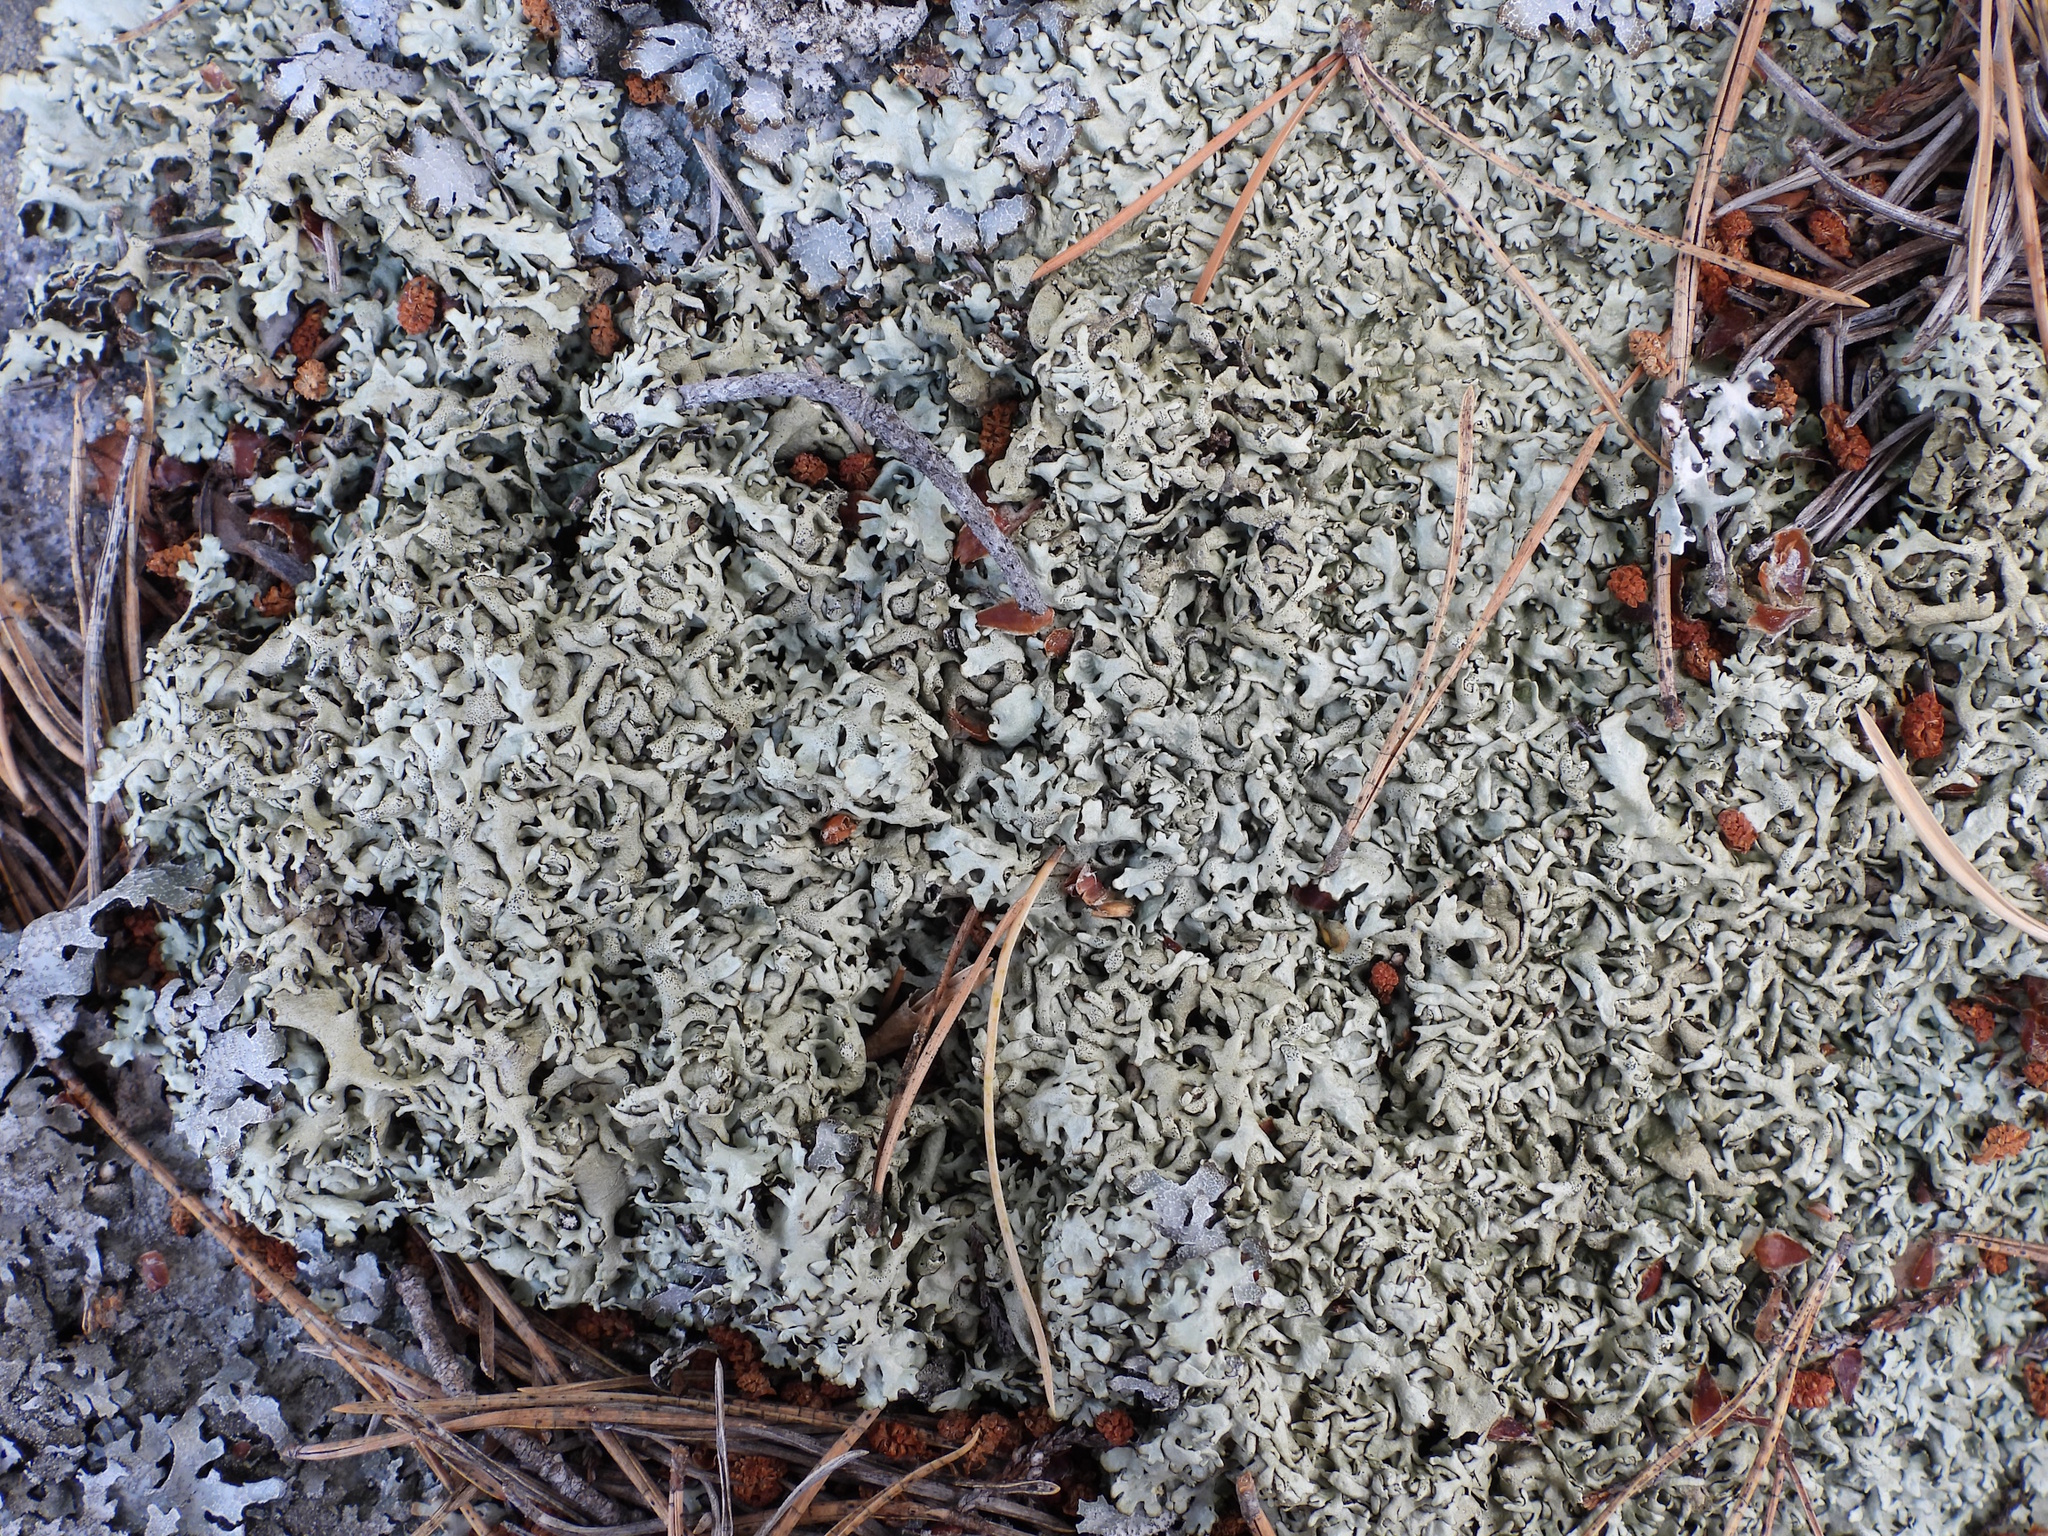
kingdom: Fungi
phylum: Ascomycota
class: Lecanoromycetes
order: Lecanorales
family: Parmeliaceae
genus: Xanthoparmelia
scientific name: Xanthoparmelia stenophylla
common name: Shingled rock shield
